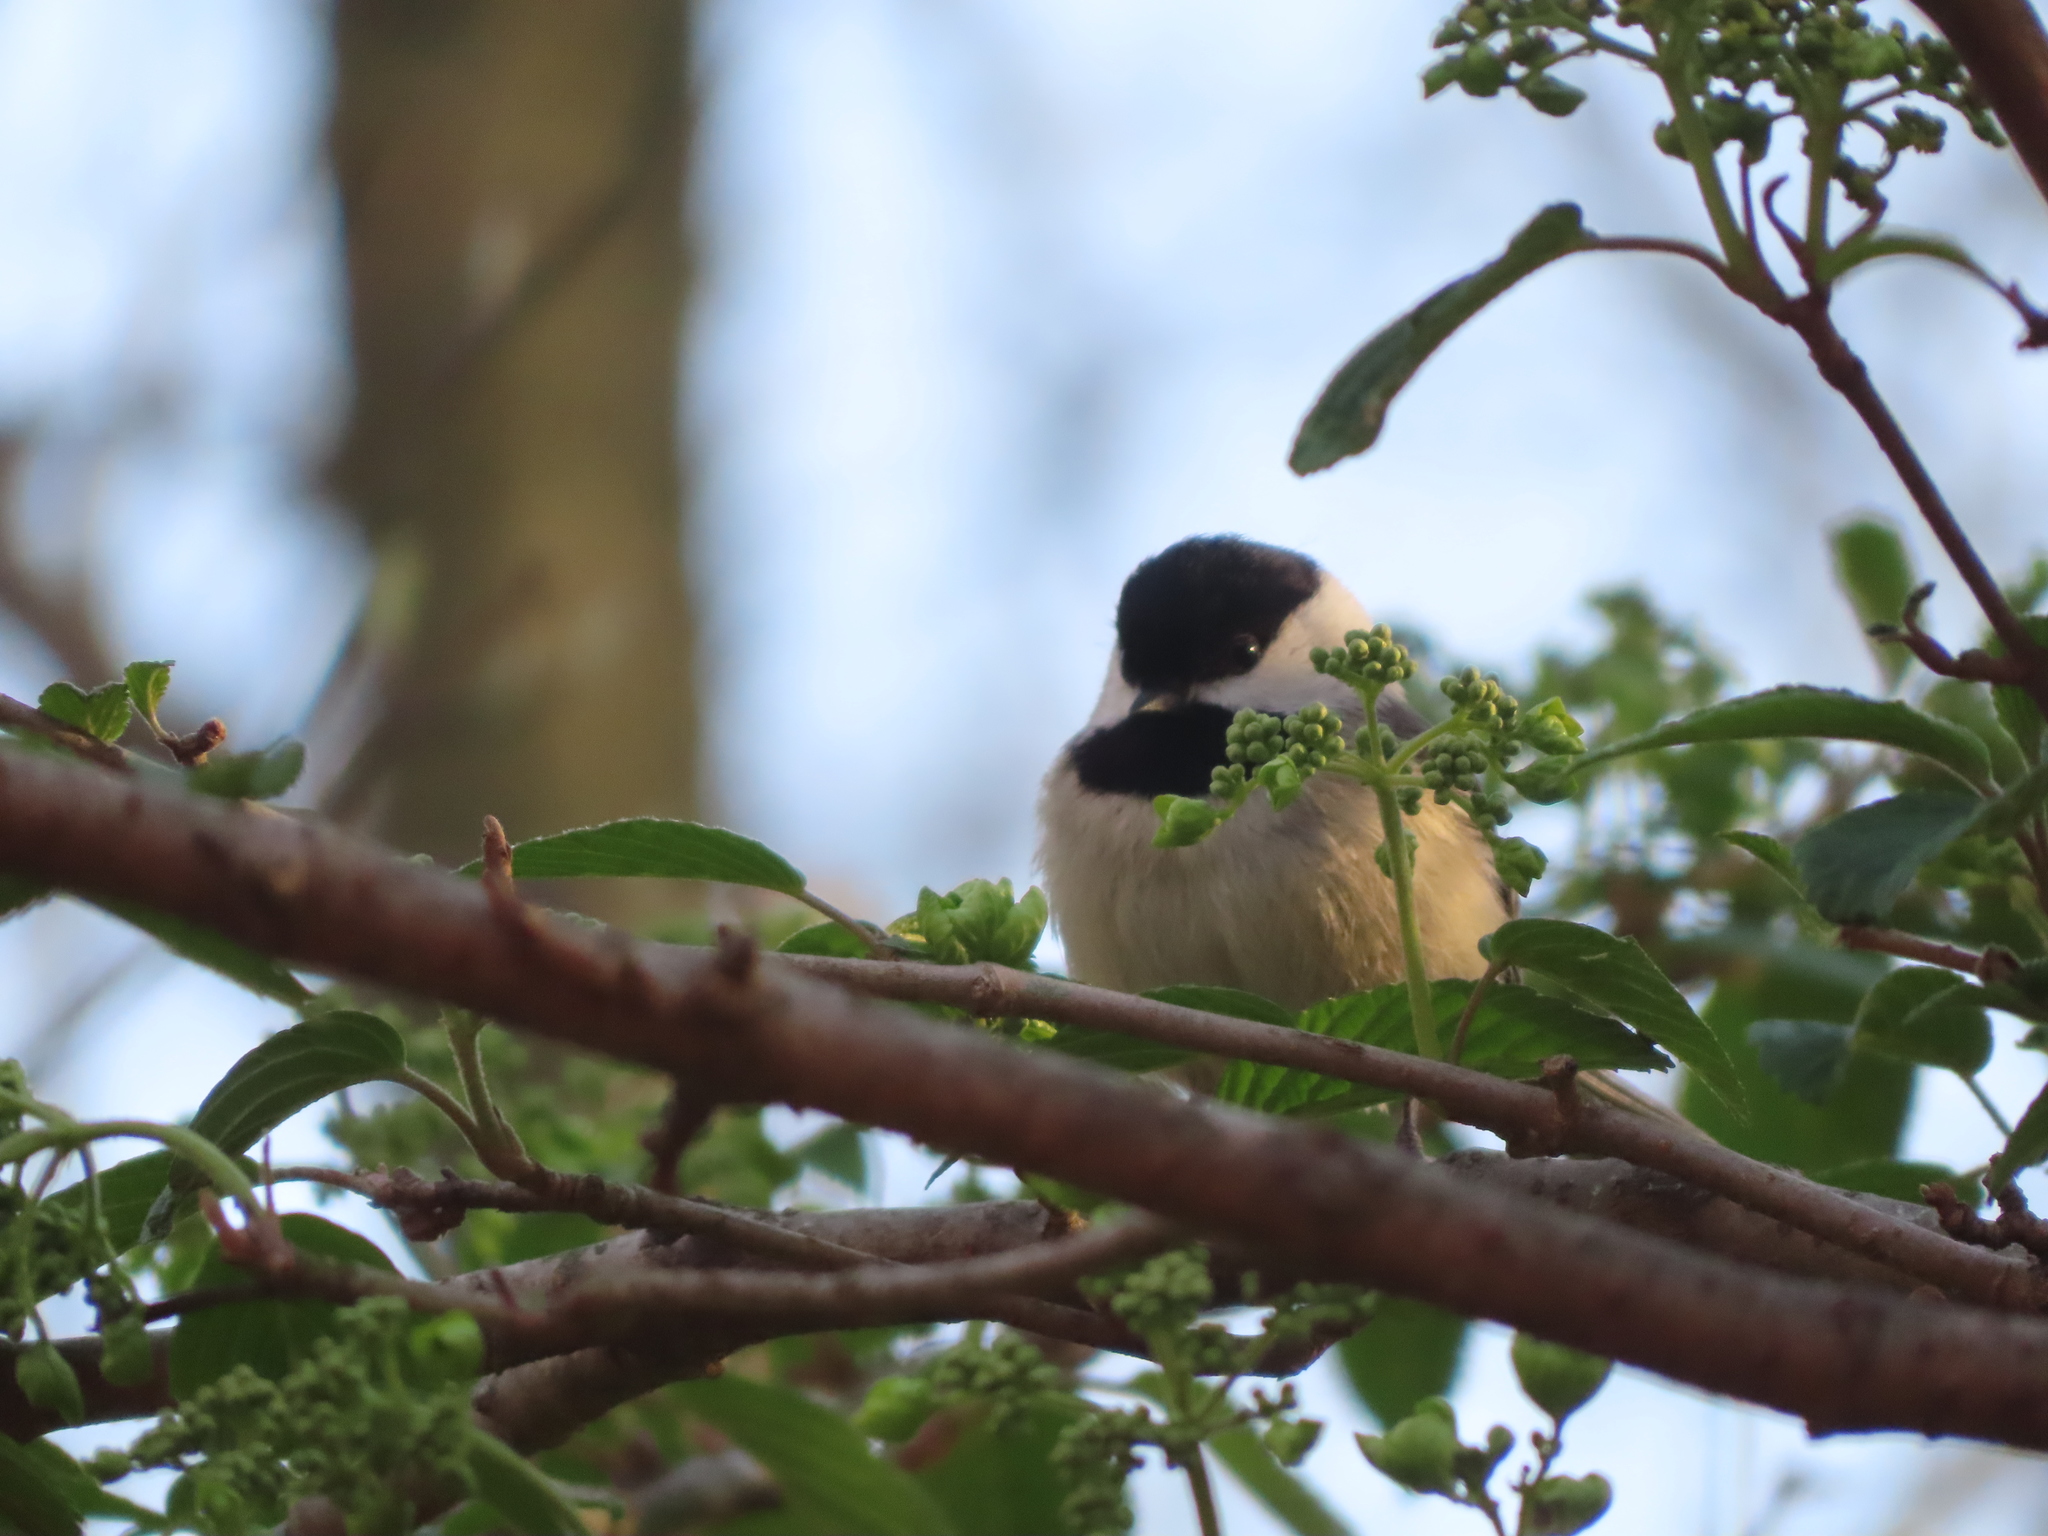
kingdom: Animalia
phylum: Chordata
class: Aves
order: Passeriformes
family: Paridae
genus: Poecile
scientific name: Poecile carolinensis
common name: Carolina chickadee
